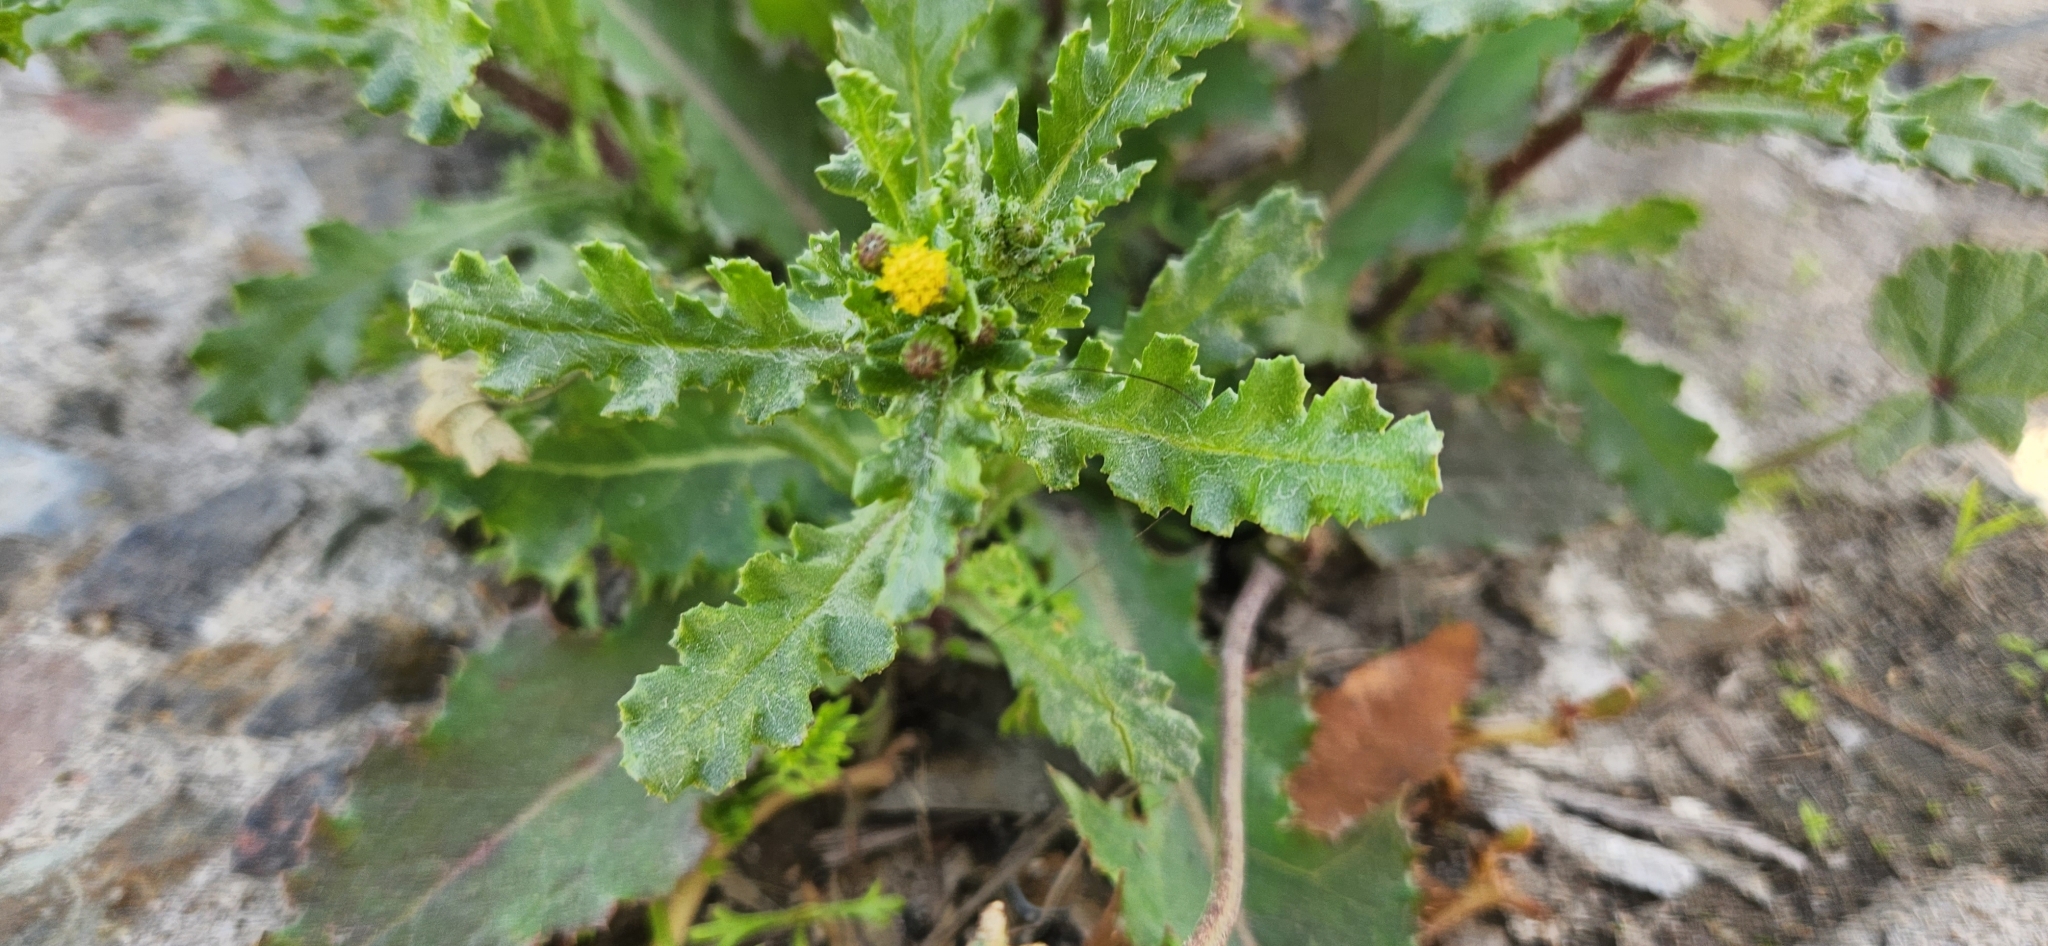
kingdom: Plantae
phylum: Tracheophyta
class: Magnoliopsida
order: Asterales
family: Asteraceae
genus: Senecio
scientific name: Senecio vulgaris
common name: Old-man-in-the-spring
